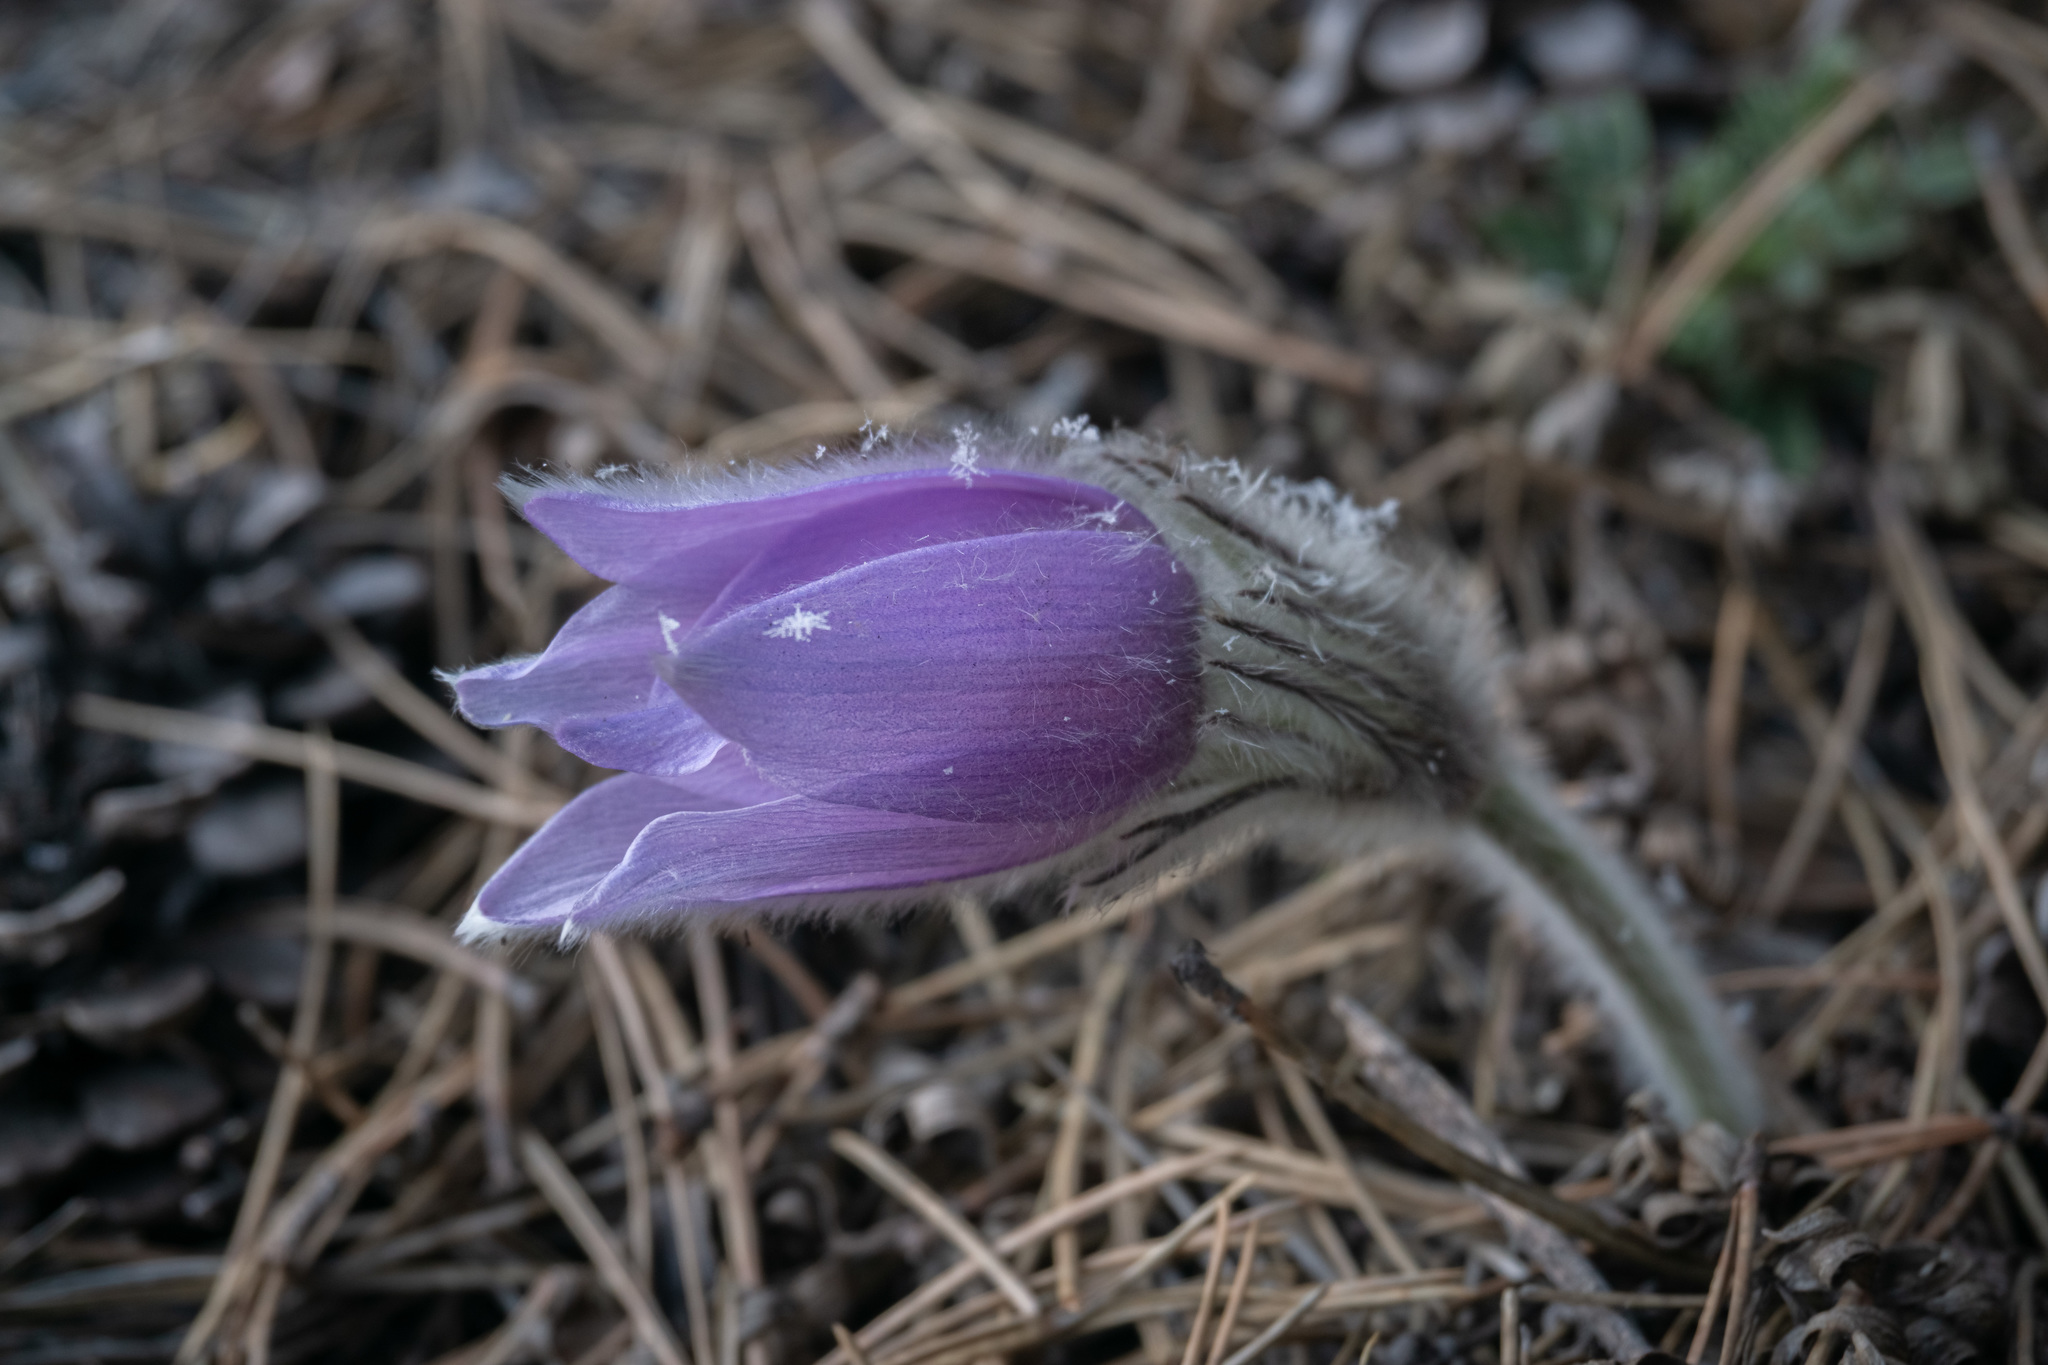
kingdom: Plantae
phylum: Tracheophyta
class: Magnoliopsida
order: Ranunculales
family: Ranunculaceae
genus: Pulsatilla
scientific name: Pulsatilla grandis
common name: Greater pasque flower
